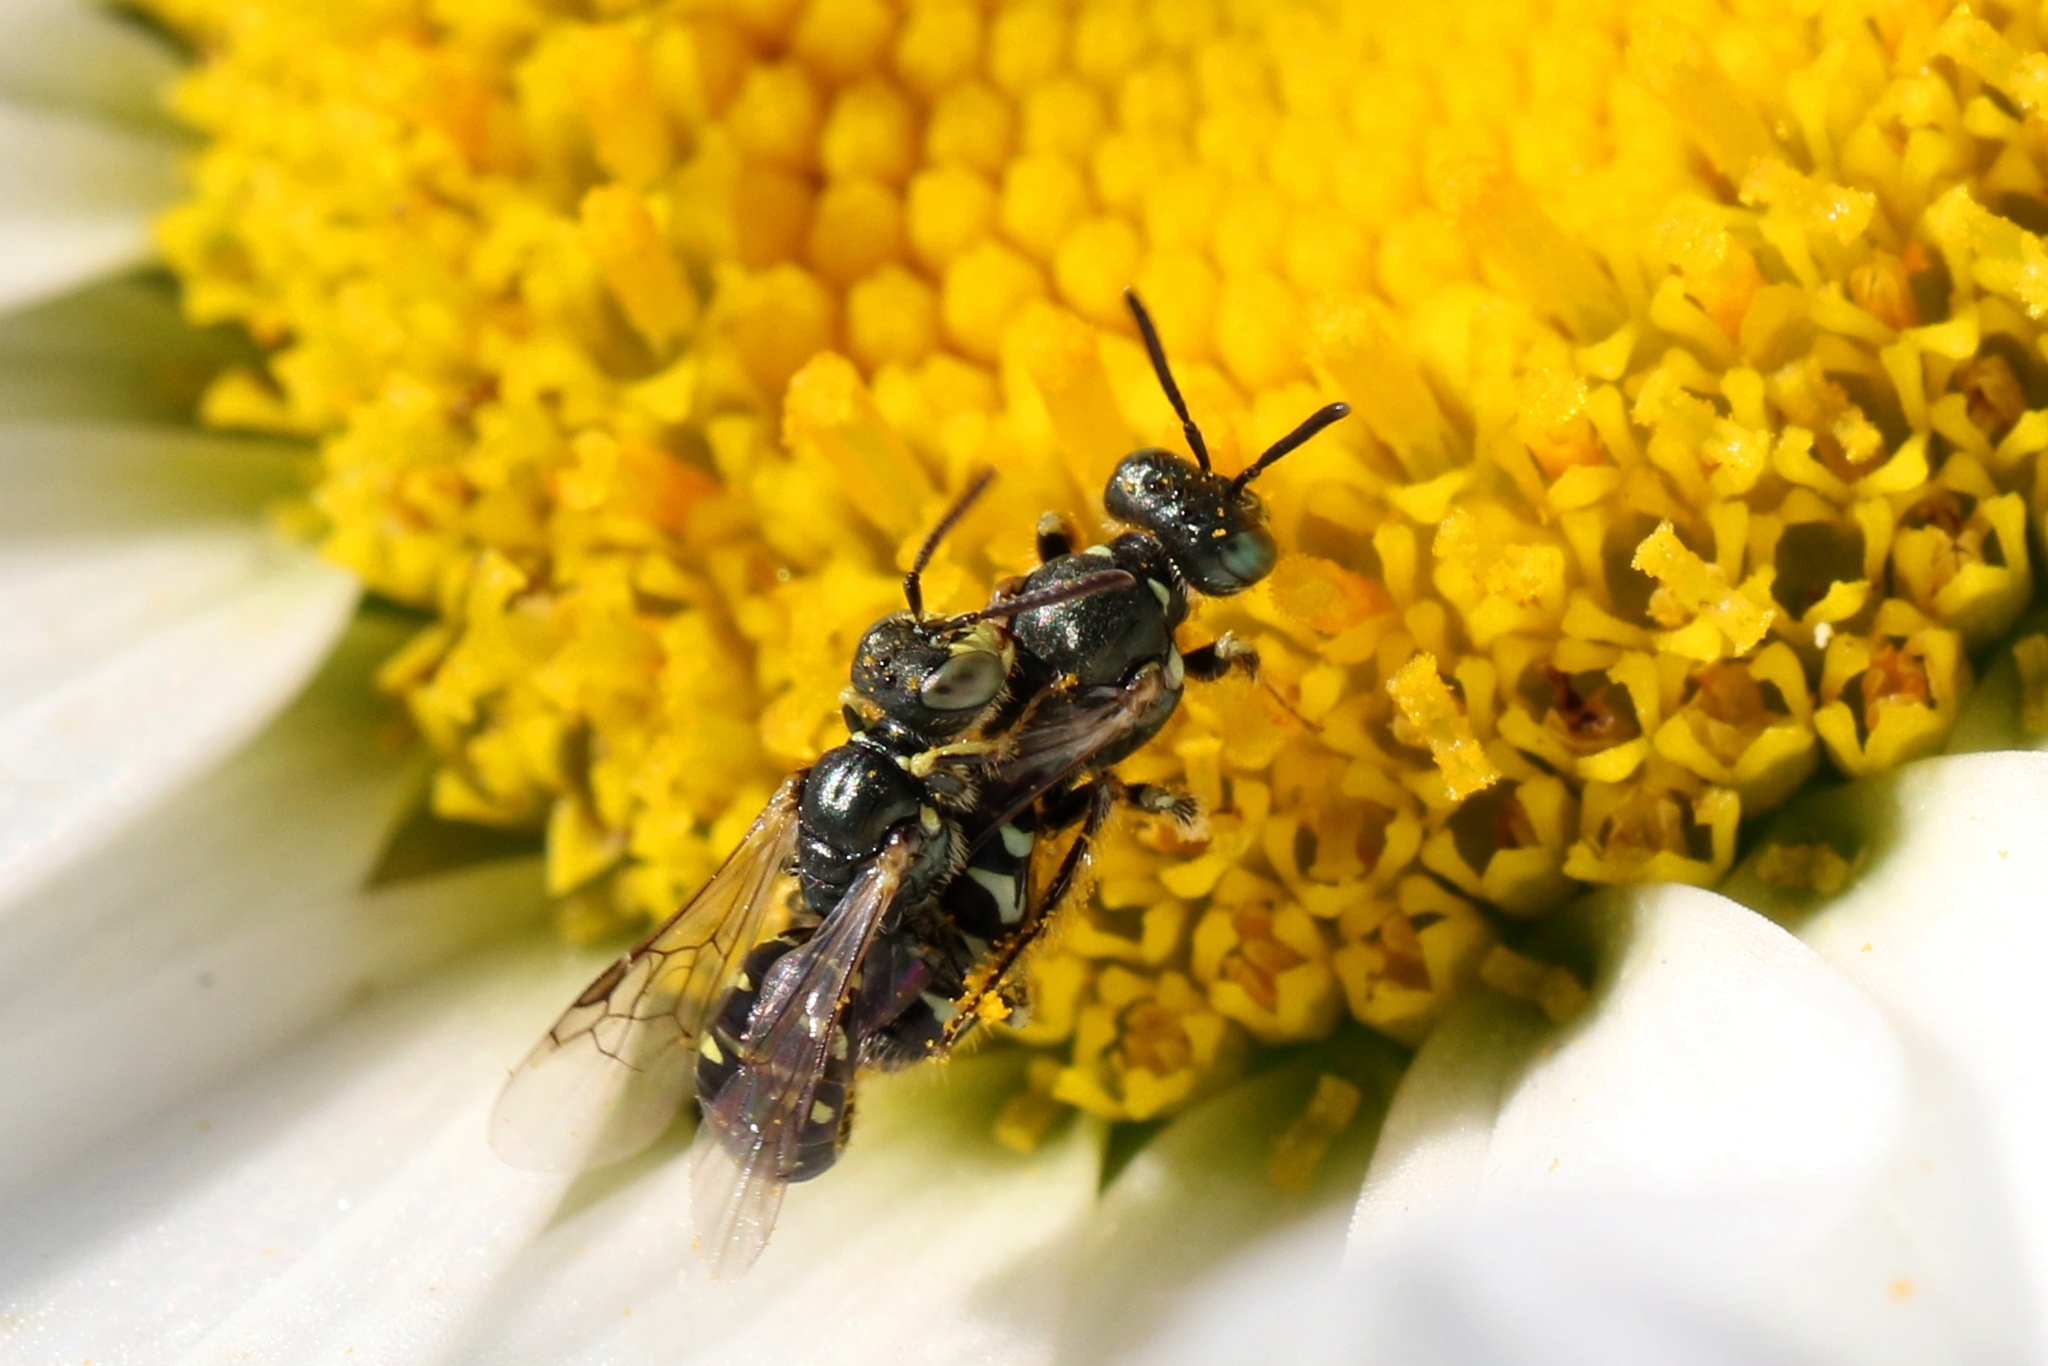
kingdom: Animalia
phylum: Arthropoda
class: Insecta
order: Hymenoptera
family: Andrenidae
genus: Perdita
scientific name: Perdita octomaculata
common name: Eight-spotted miner bee
